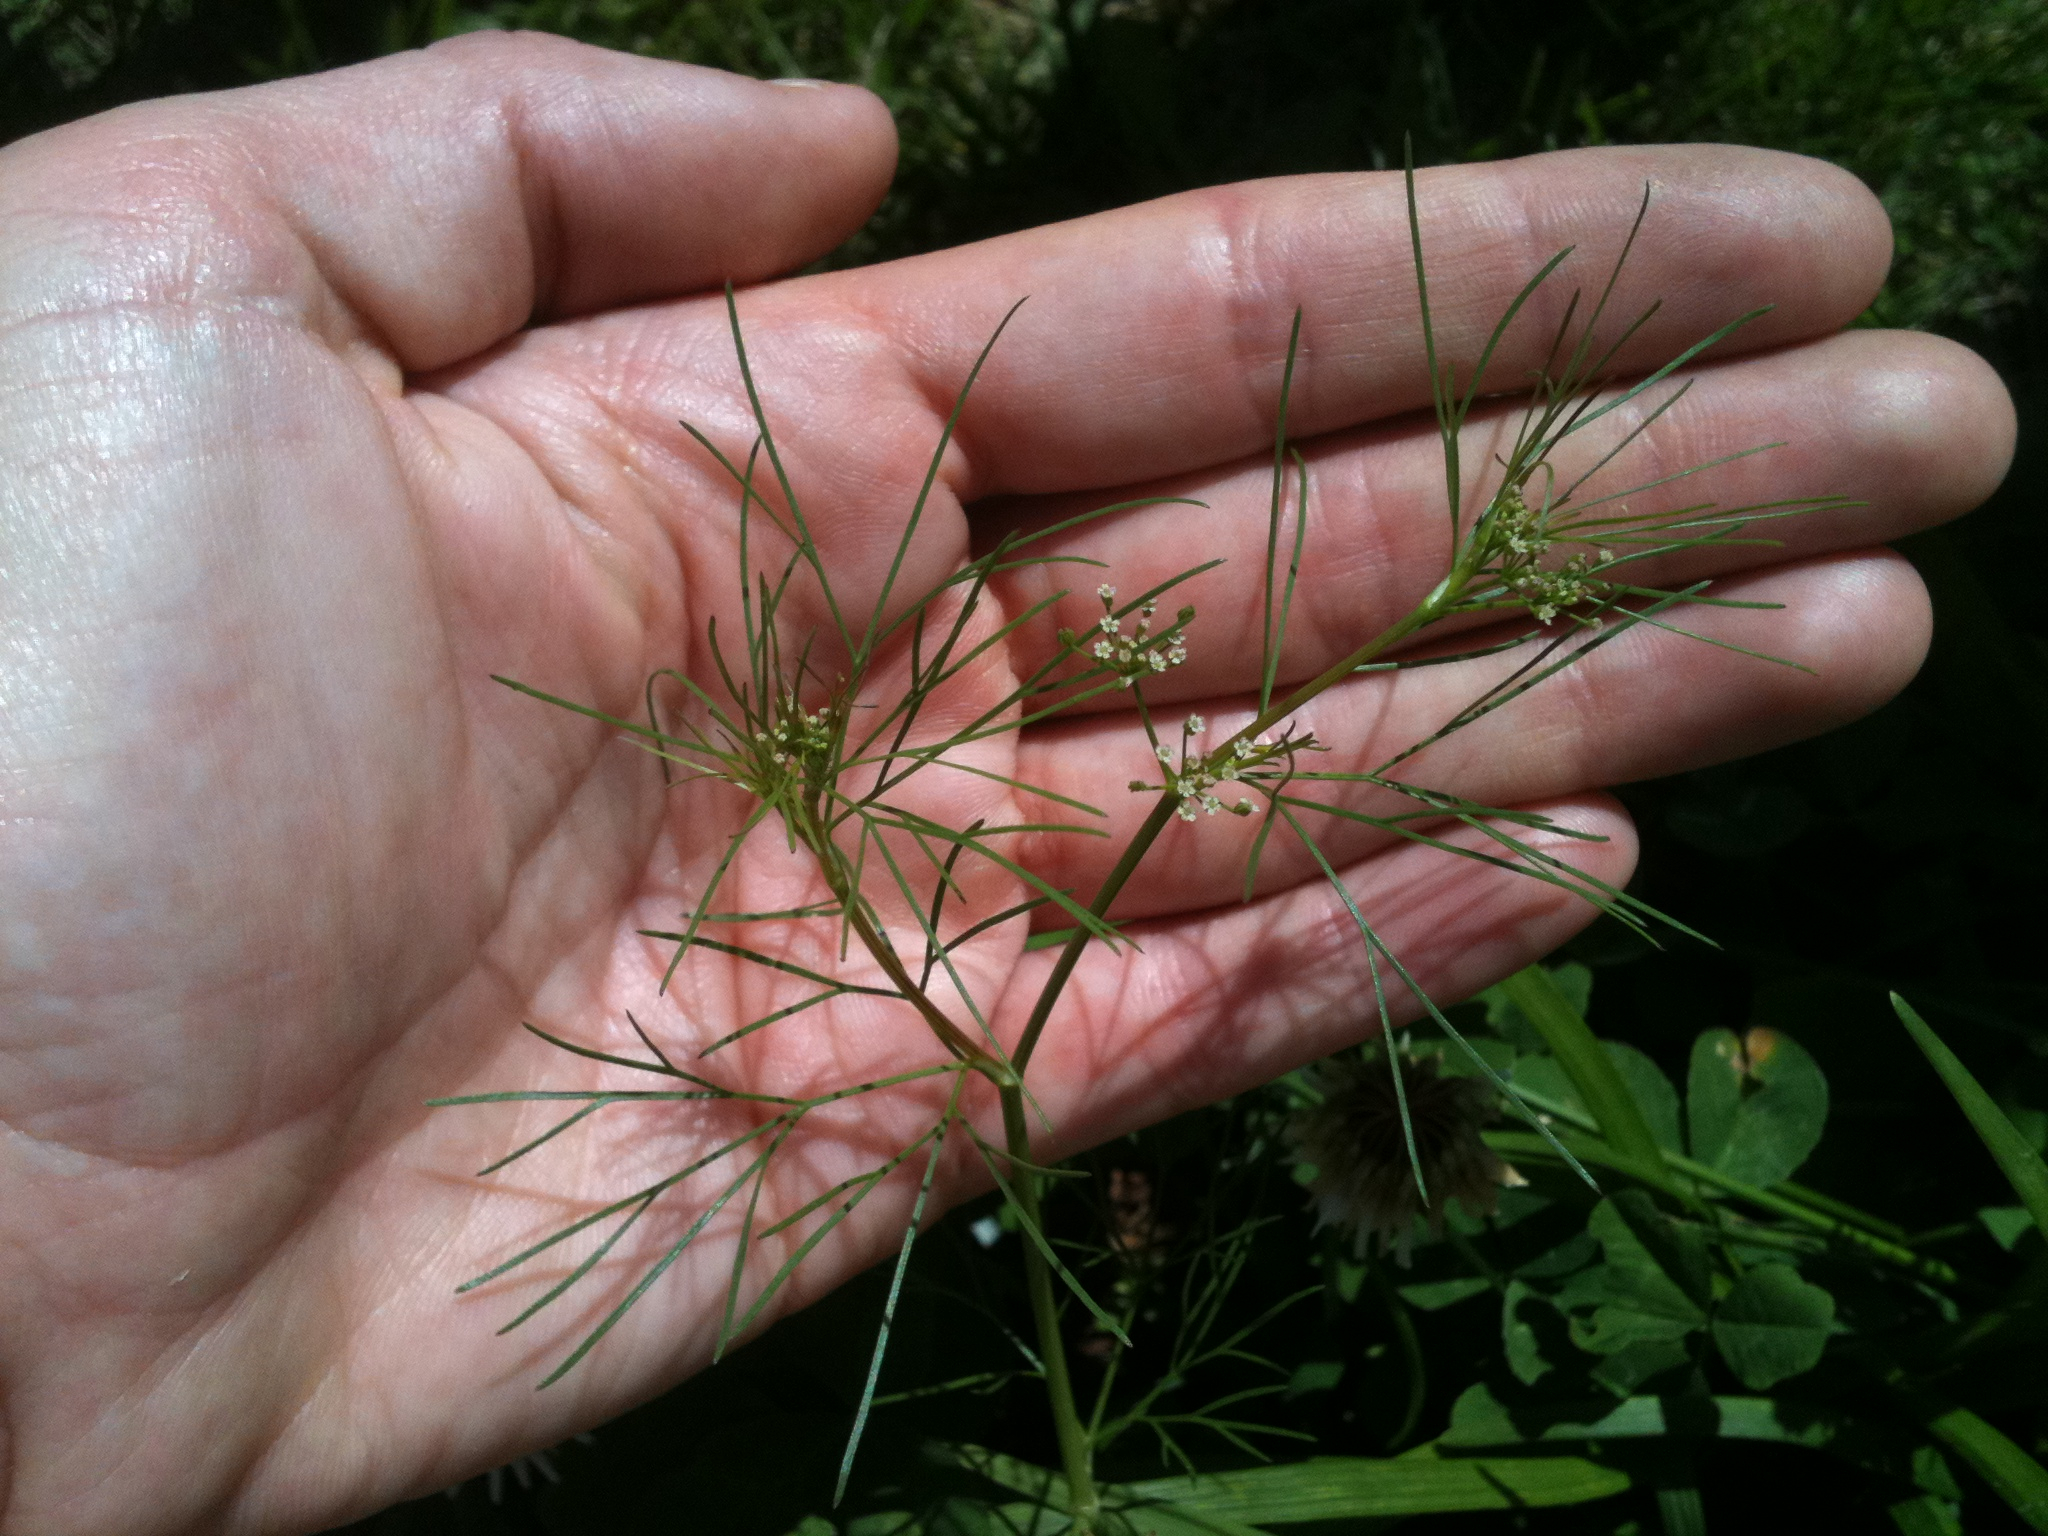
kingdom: Plantae
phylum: Tracheophyta
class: Magnoliopsida
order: Apiales
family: Apiaceae
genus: Ptilimnium
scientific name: Ptilimnium capillaceum
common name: Herbwilliam
